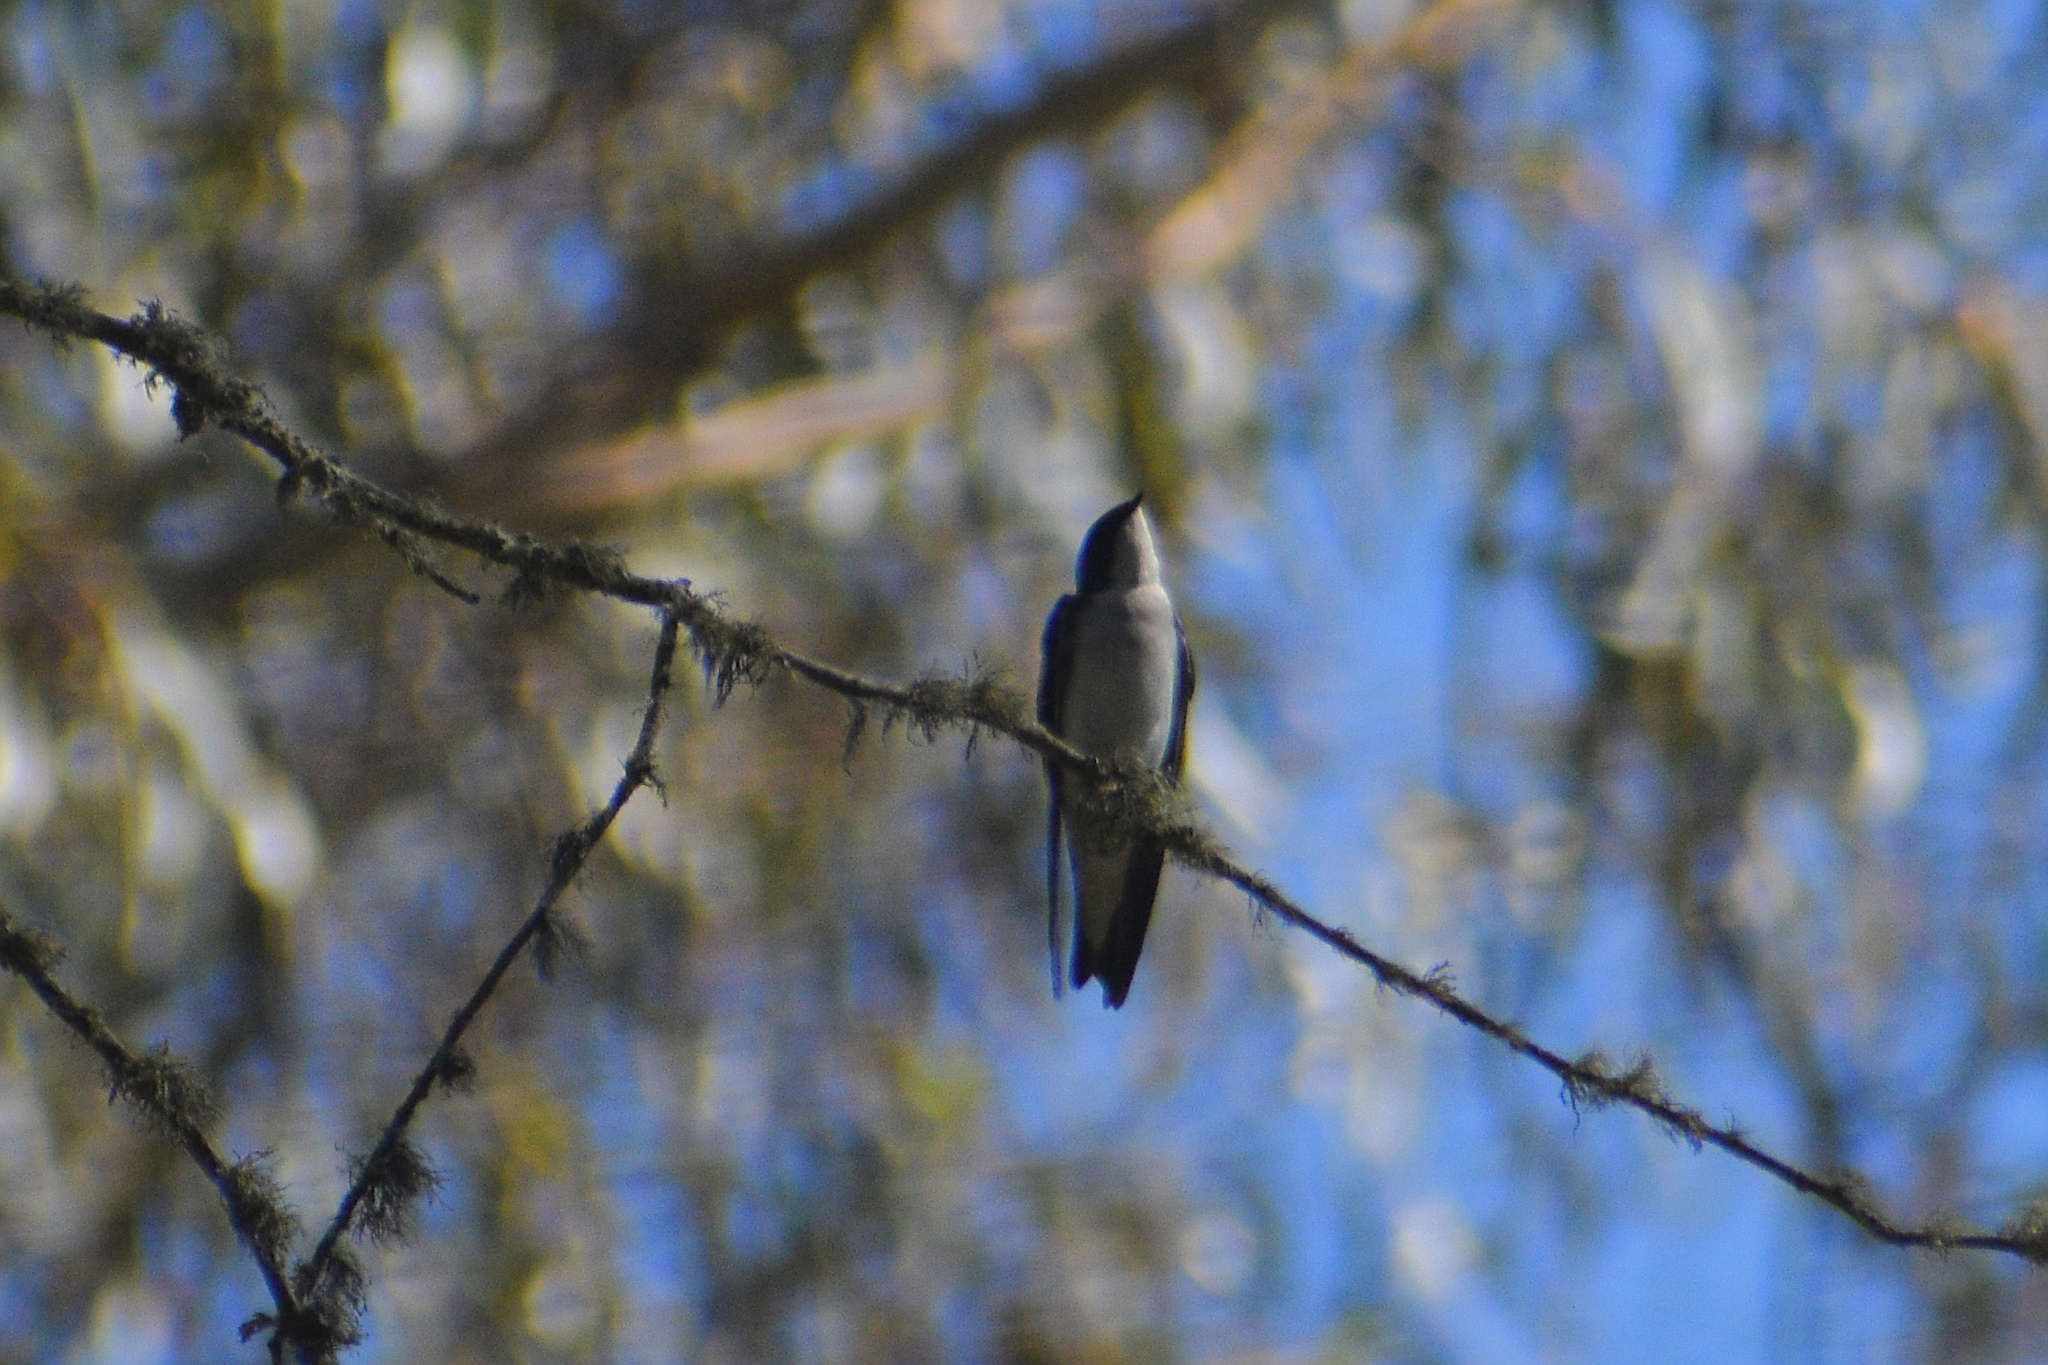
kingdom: Animalia
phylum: Chordata
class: Aves
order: Passeriformes
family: Hirundinidae
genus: Tachycineta
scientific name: Tachycineta bicolor
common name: Tree swallow
